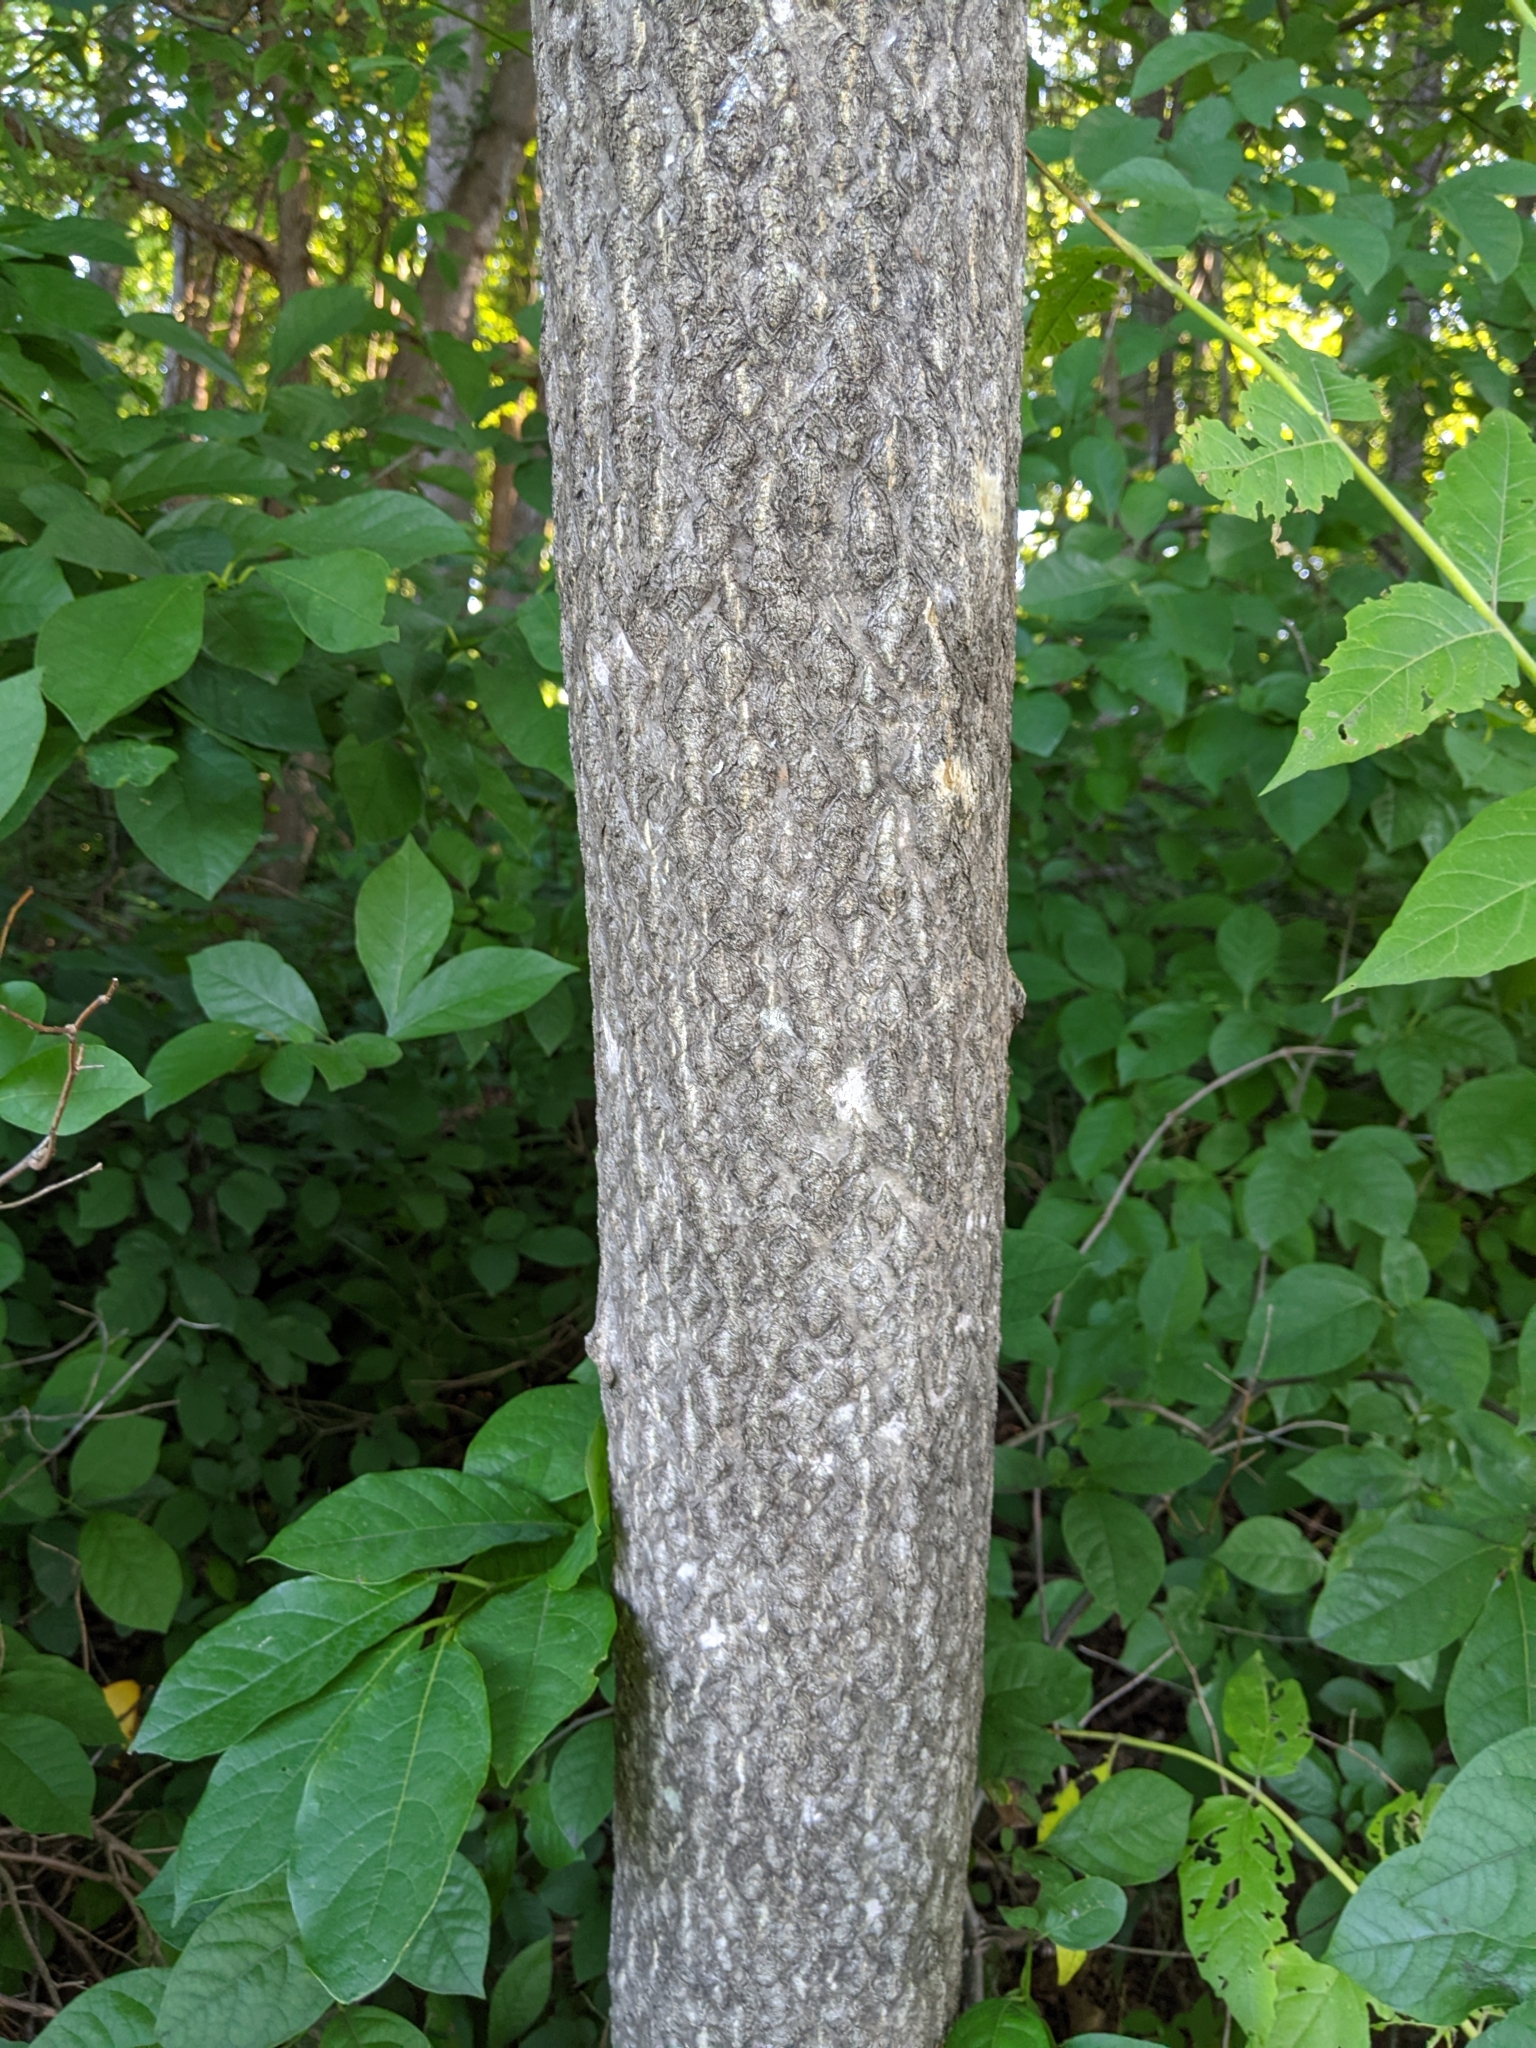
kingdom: Plantae
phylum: Tracheophyta
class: Magnoliopsida
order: Sapindales
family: Simaroubaceae
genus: Ailanthus
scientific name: Ailanthus altissima
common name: Tree-of-heaven
